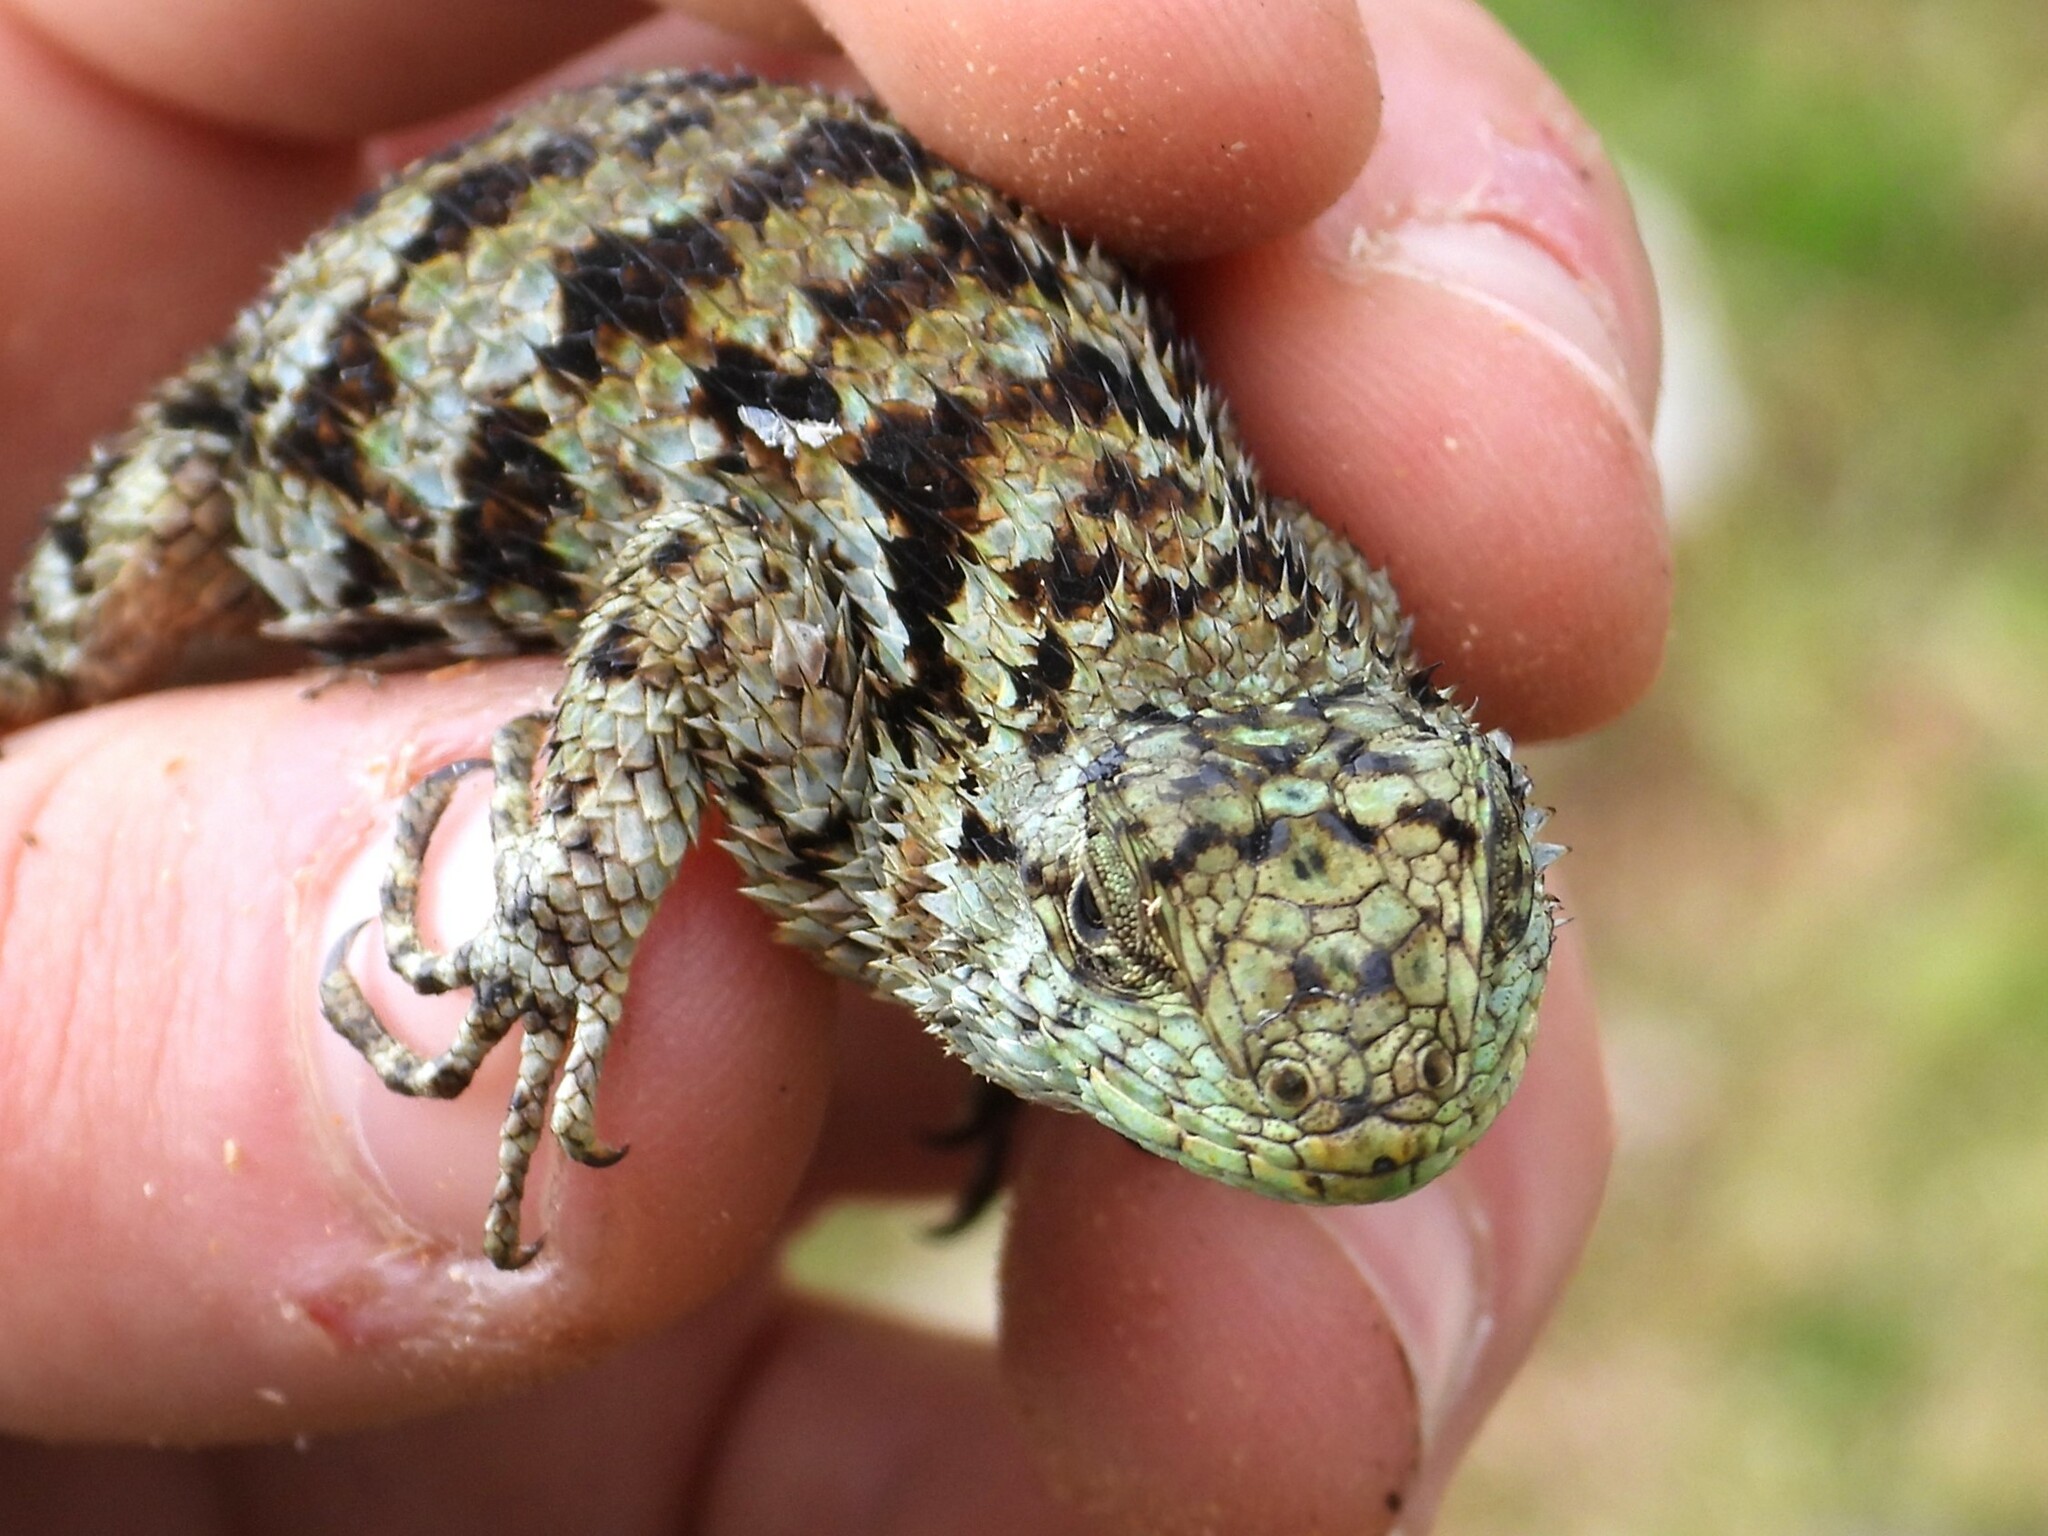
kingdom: Animalia
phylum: Chordata
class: Squamata
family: Phrynosomatidae
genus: Sceloporus
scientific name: Sceloporus malachiticus
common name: Green spiny lizard
